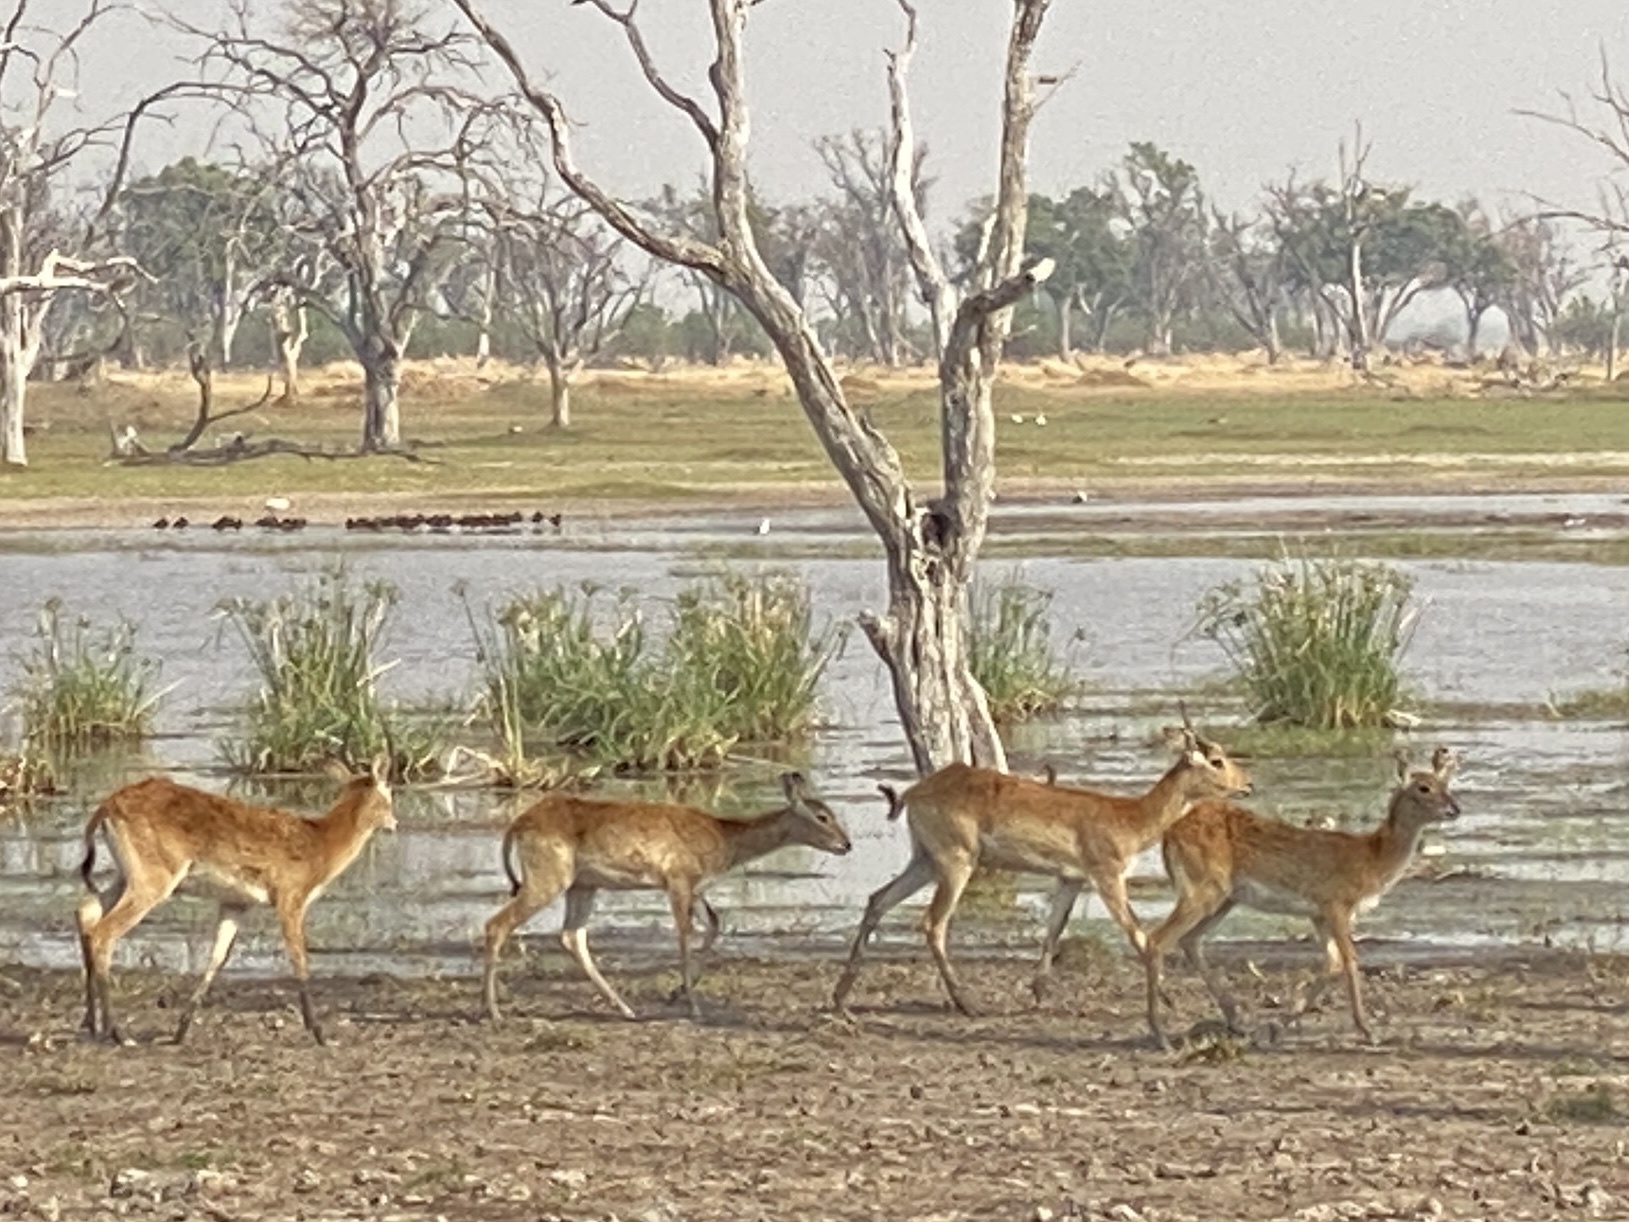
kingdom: Animalia
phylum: Chordata
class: Mammalia
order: Artiodactyla
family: Bovidae
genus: Kobus
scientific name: Kobus leche
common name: Lechwe
